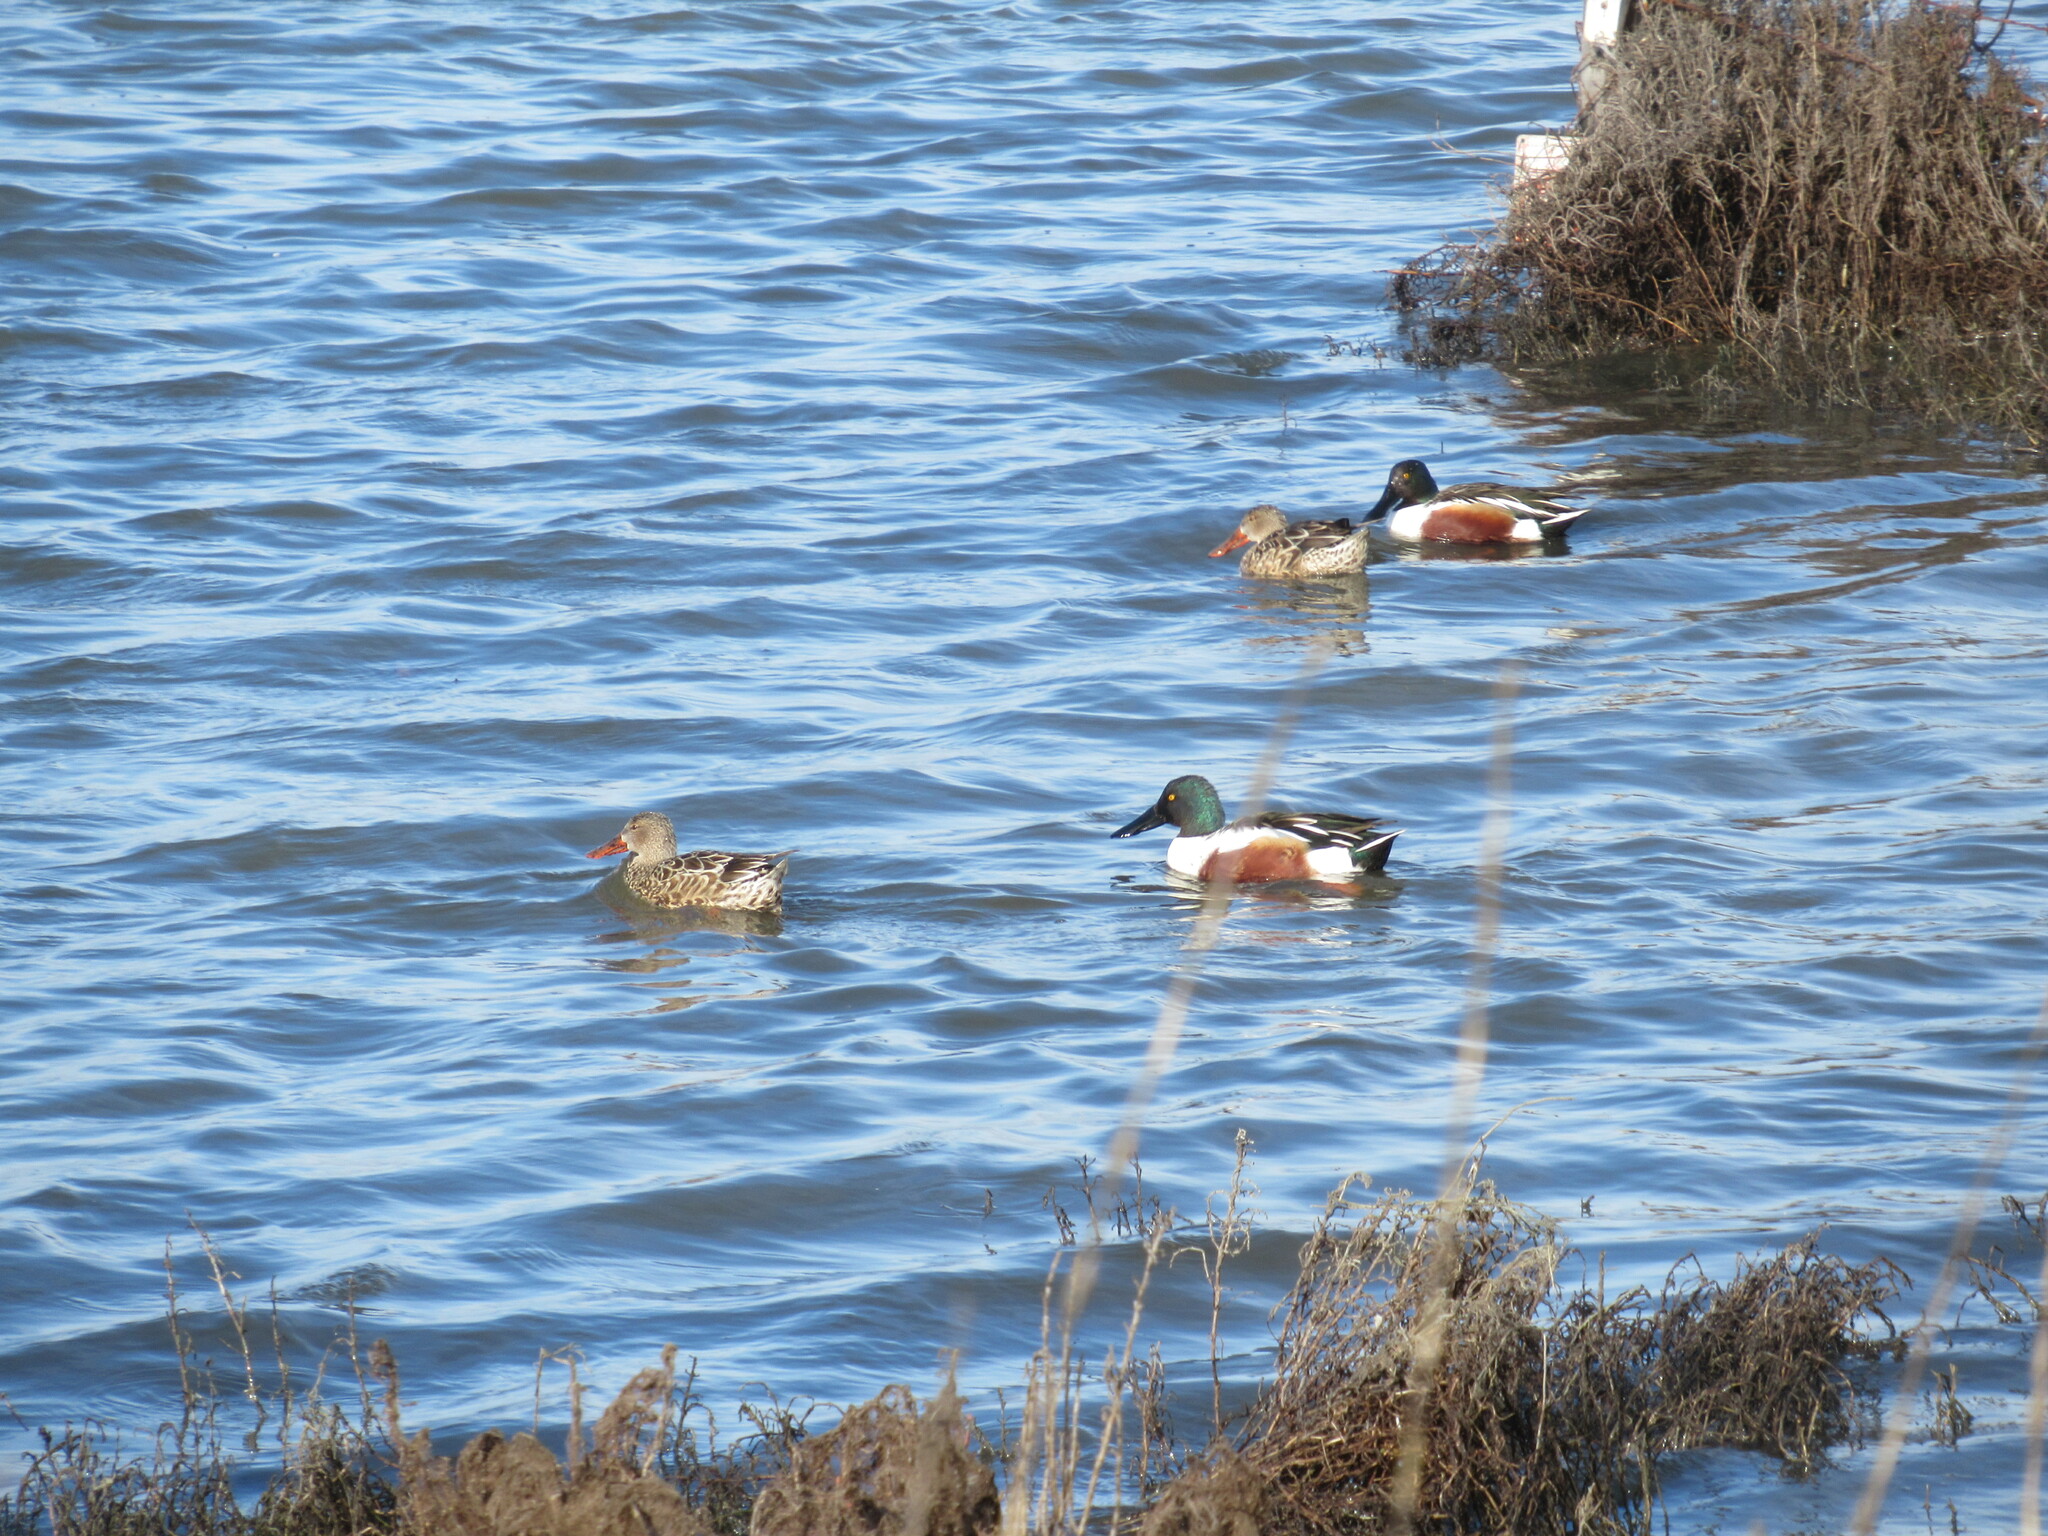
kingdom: Animalia
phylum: Chordata
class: Aves
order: Anseriformes
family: Anatidae
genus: Spatula
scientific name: Spatula clypeata
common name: Northern shoveler
